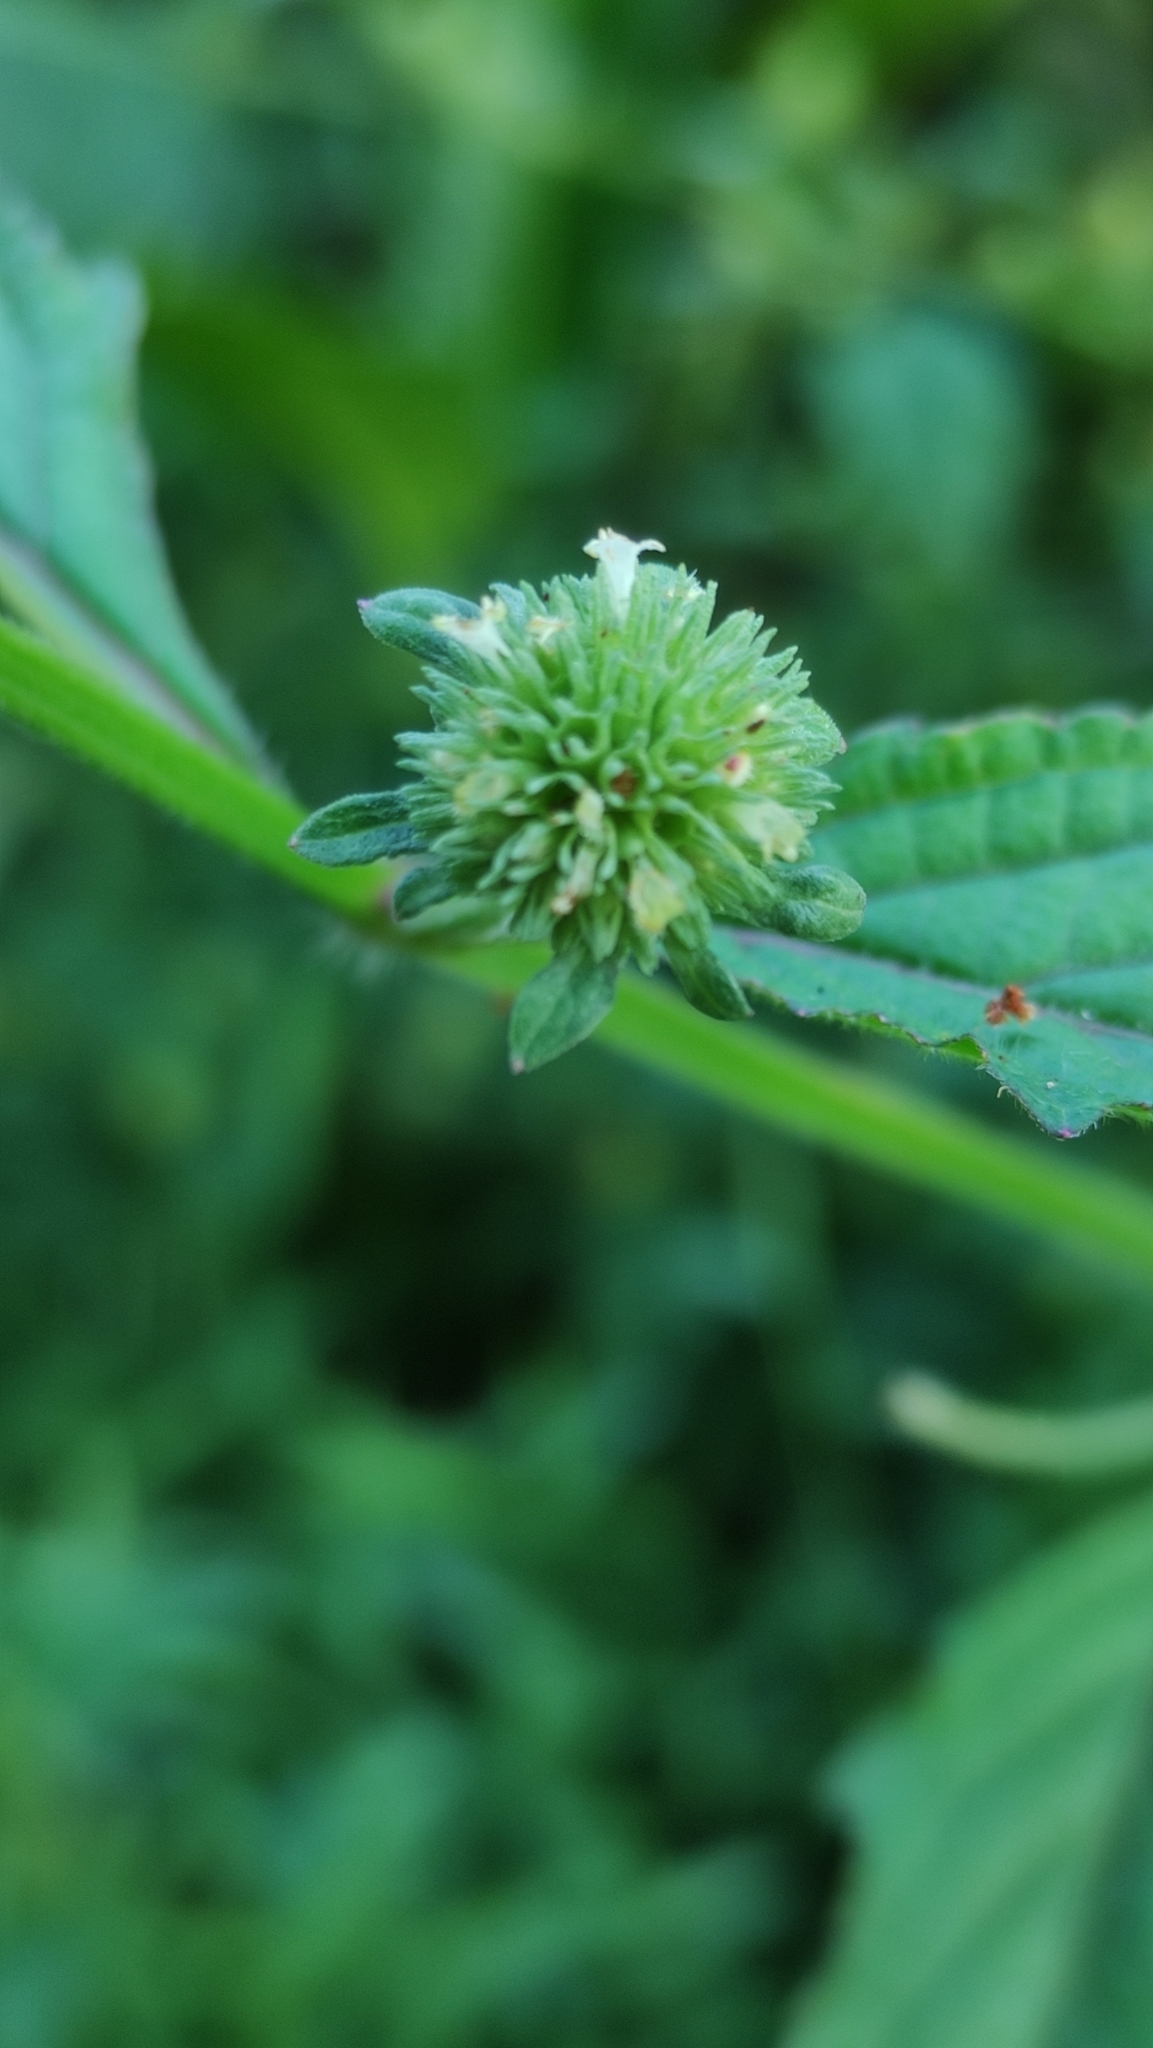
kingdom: Plantae
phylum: Tracheophyta
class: Magnoliopsida
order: Lamiales
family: Lamiaceae
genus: Hyptis
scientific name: Hyptis capitata
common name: False ironwort
